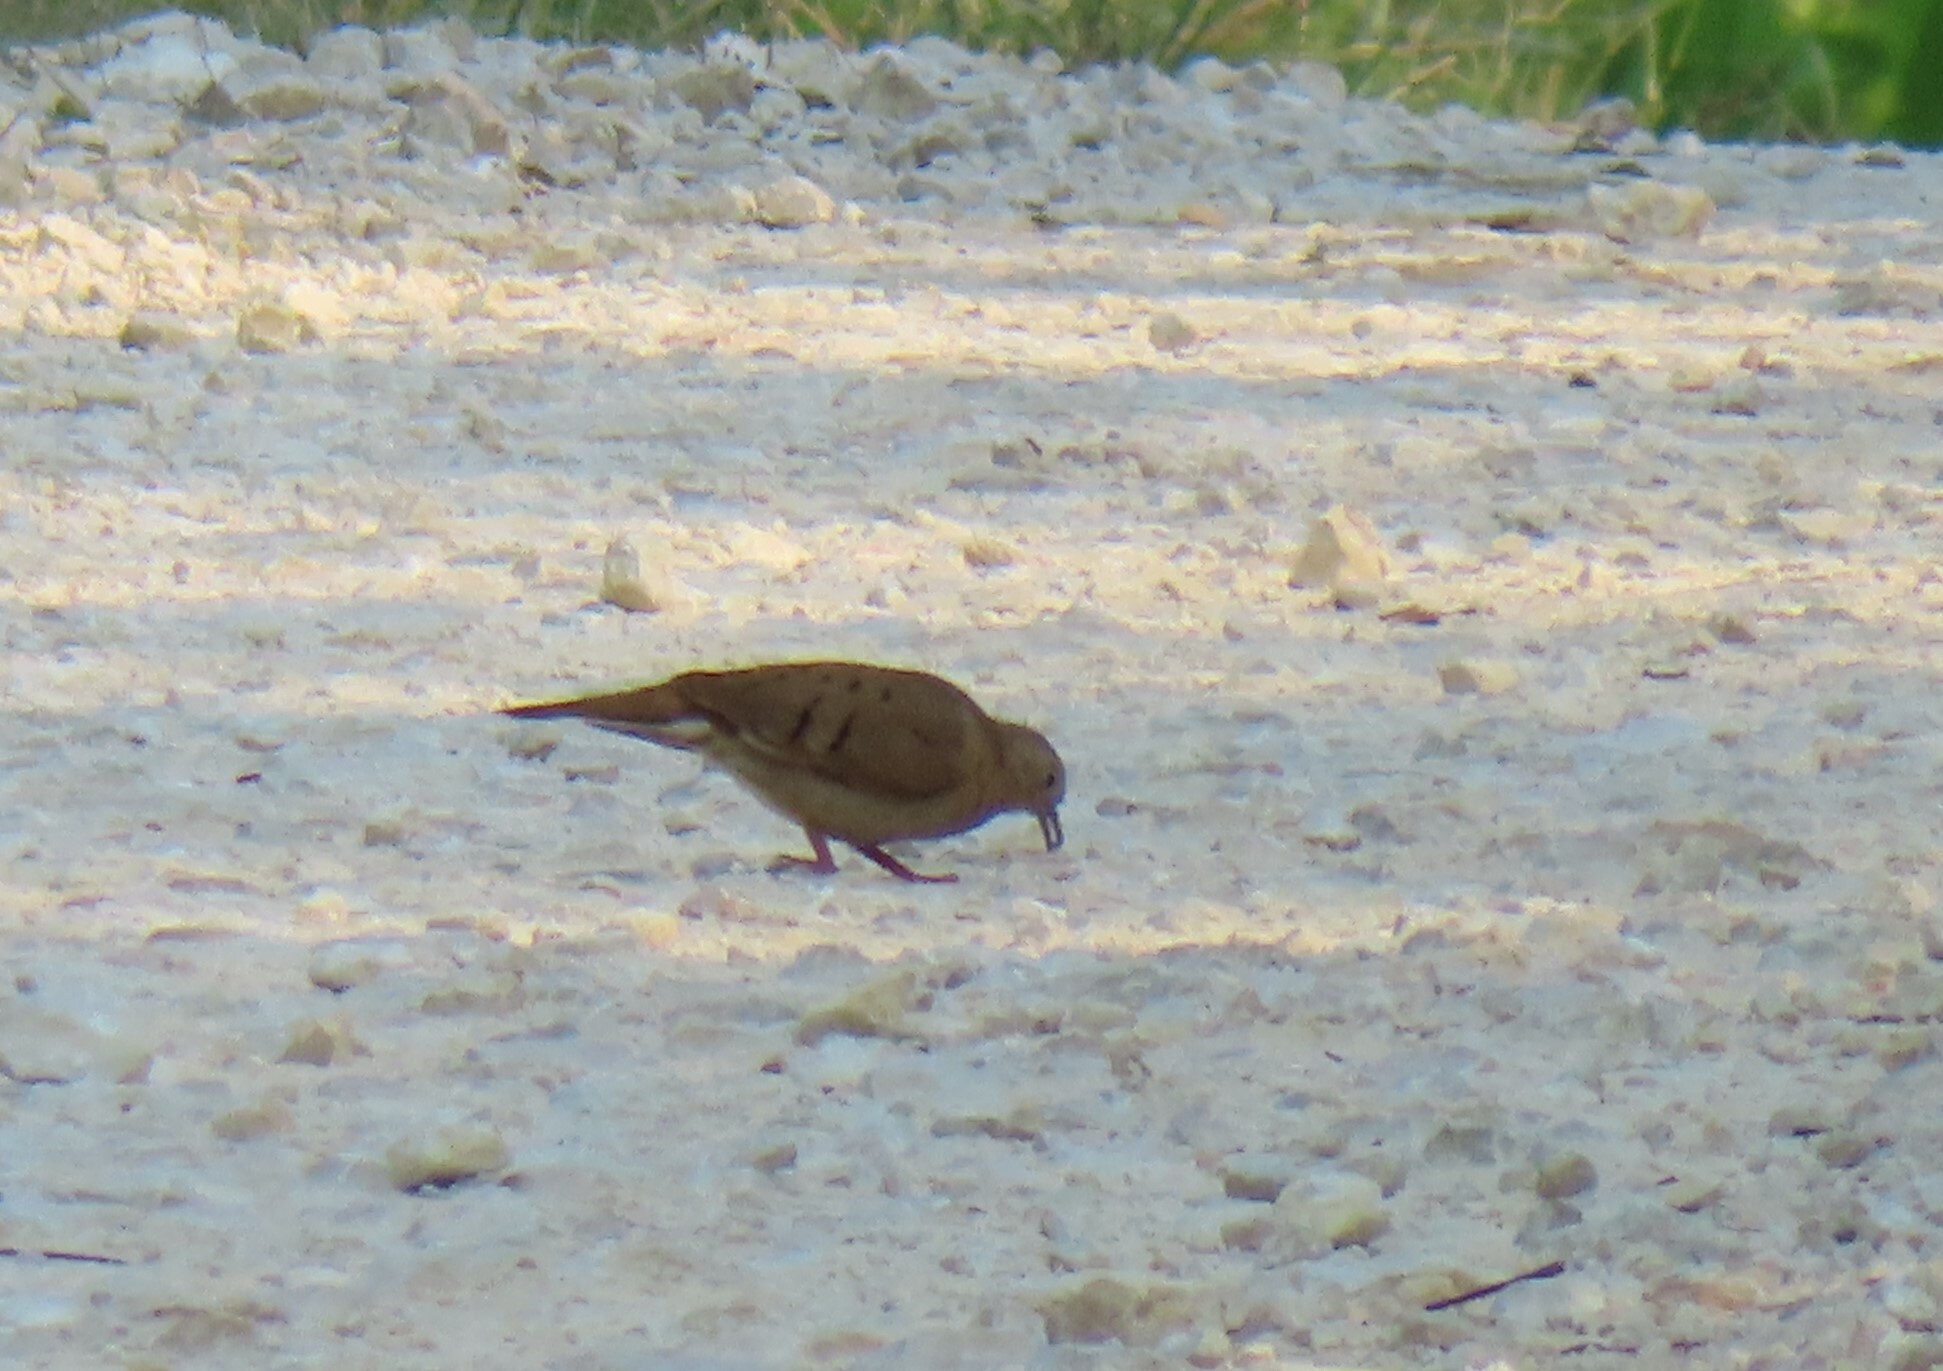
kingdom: Animalia
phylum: Chordata
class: Aves
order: Columbiformes
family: Columbidae
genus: Columbina
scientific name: Columbina talpacoti
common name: Ruddy ground dove
